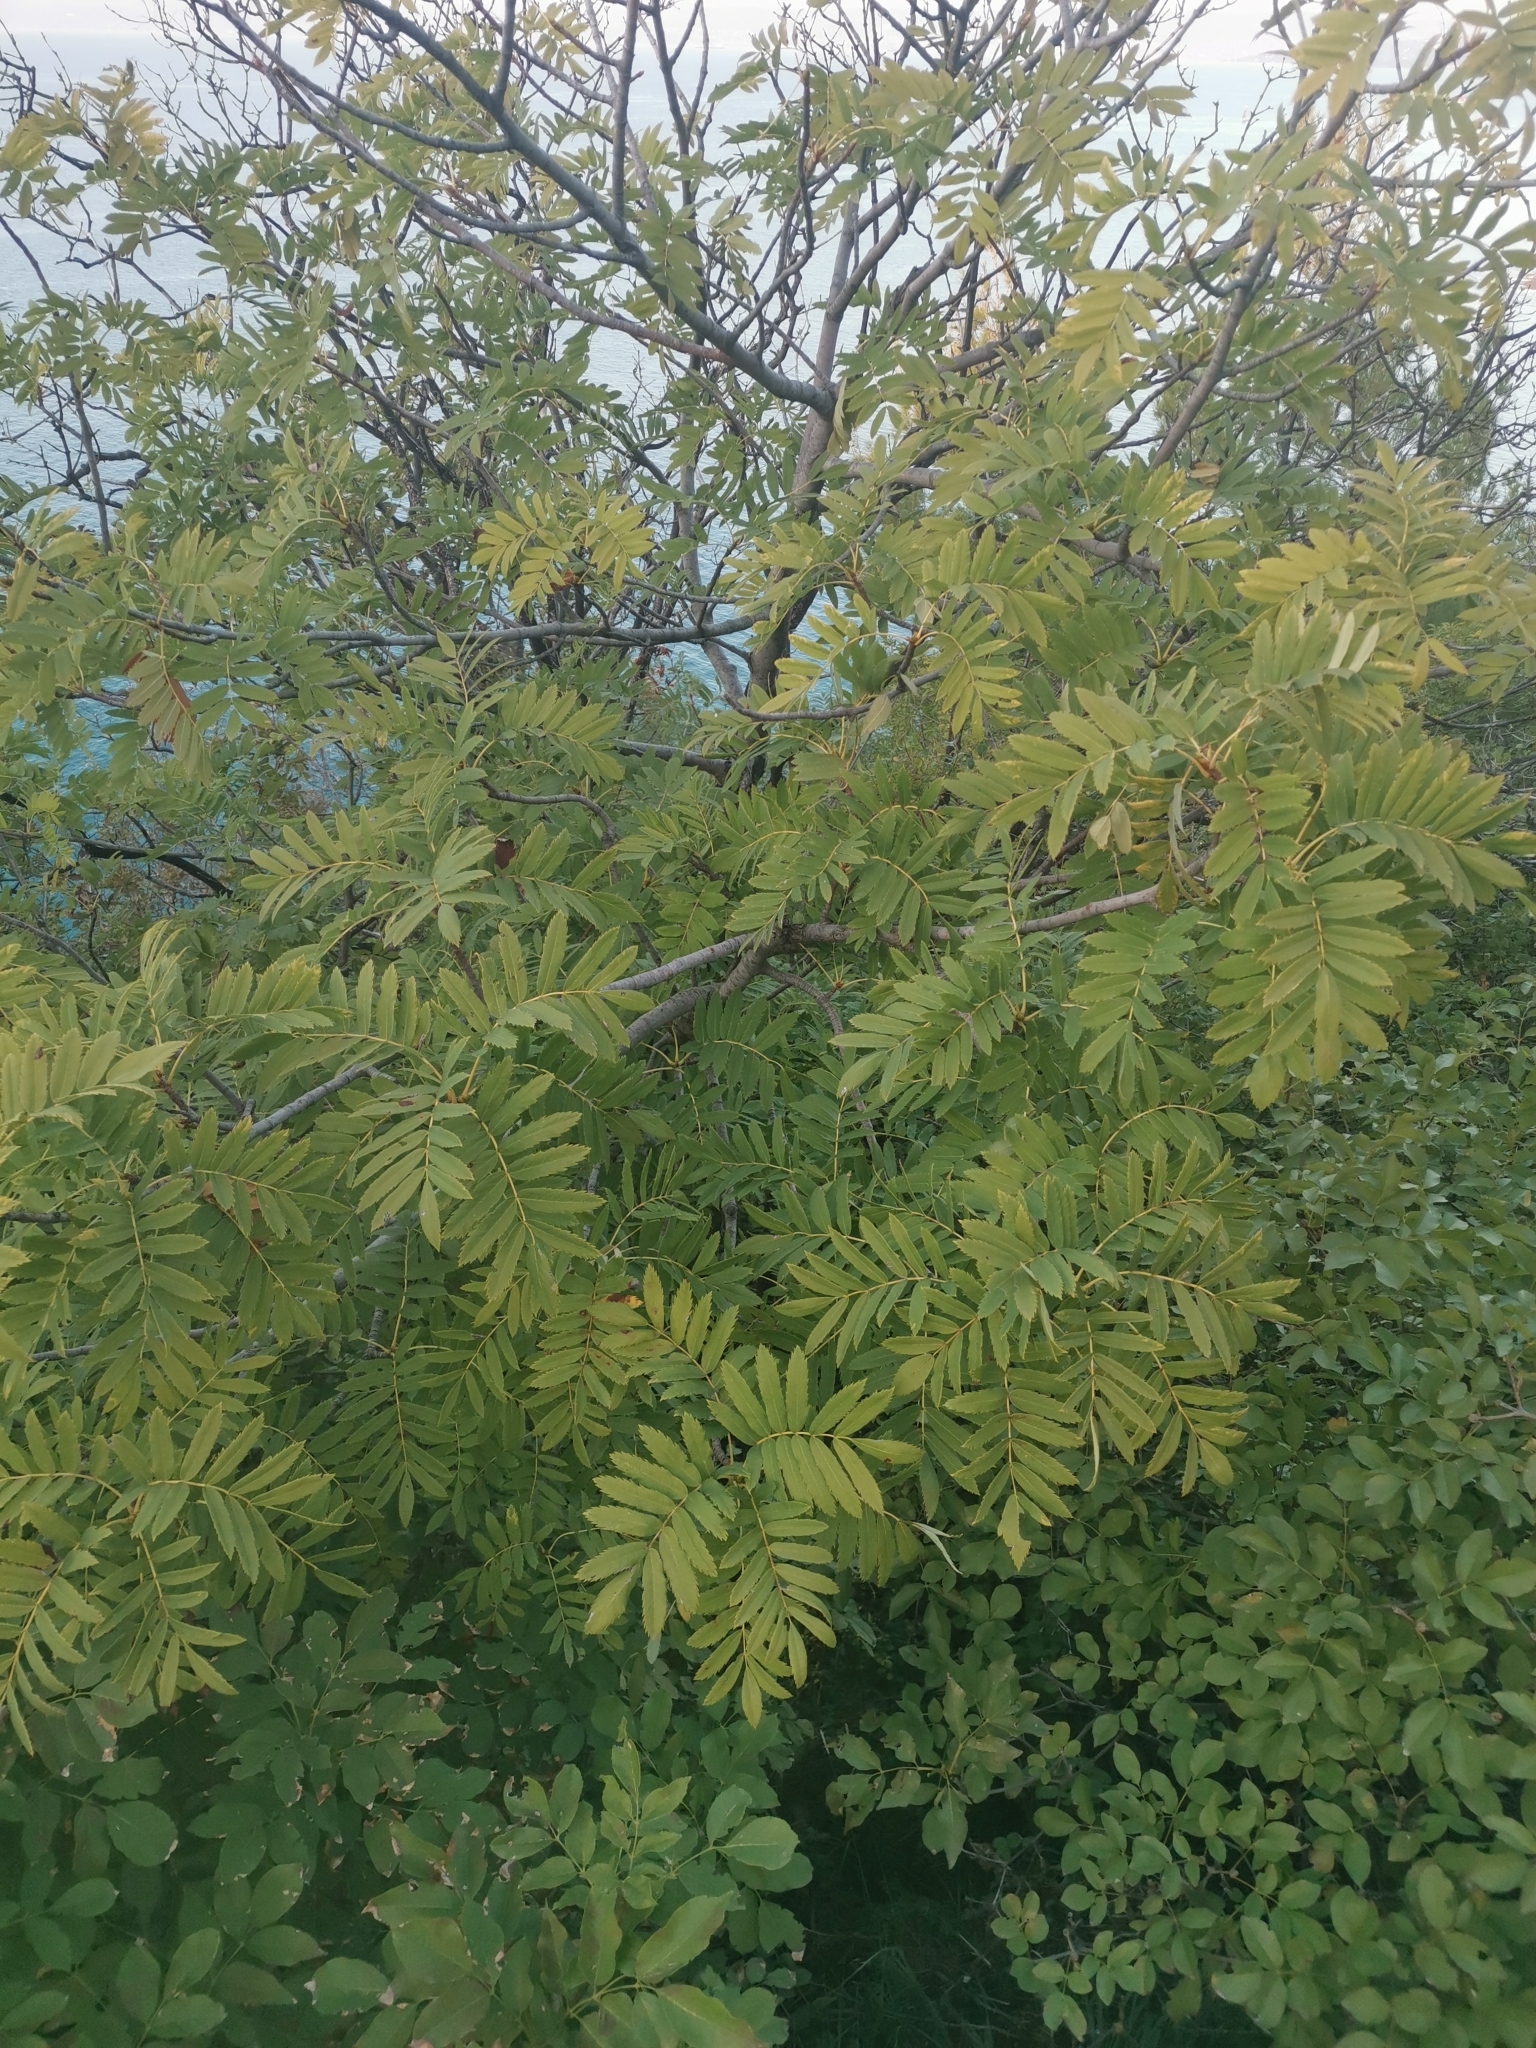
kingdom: Plantae
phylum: Tracheophyta
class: Magnoliopsida
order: Rosales
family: Rosaceae
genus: Cormus
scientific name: Cormus domestica
